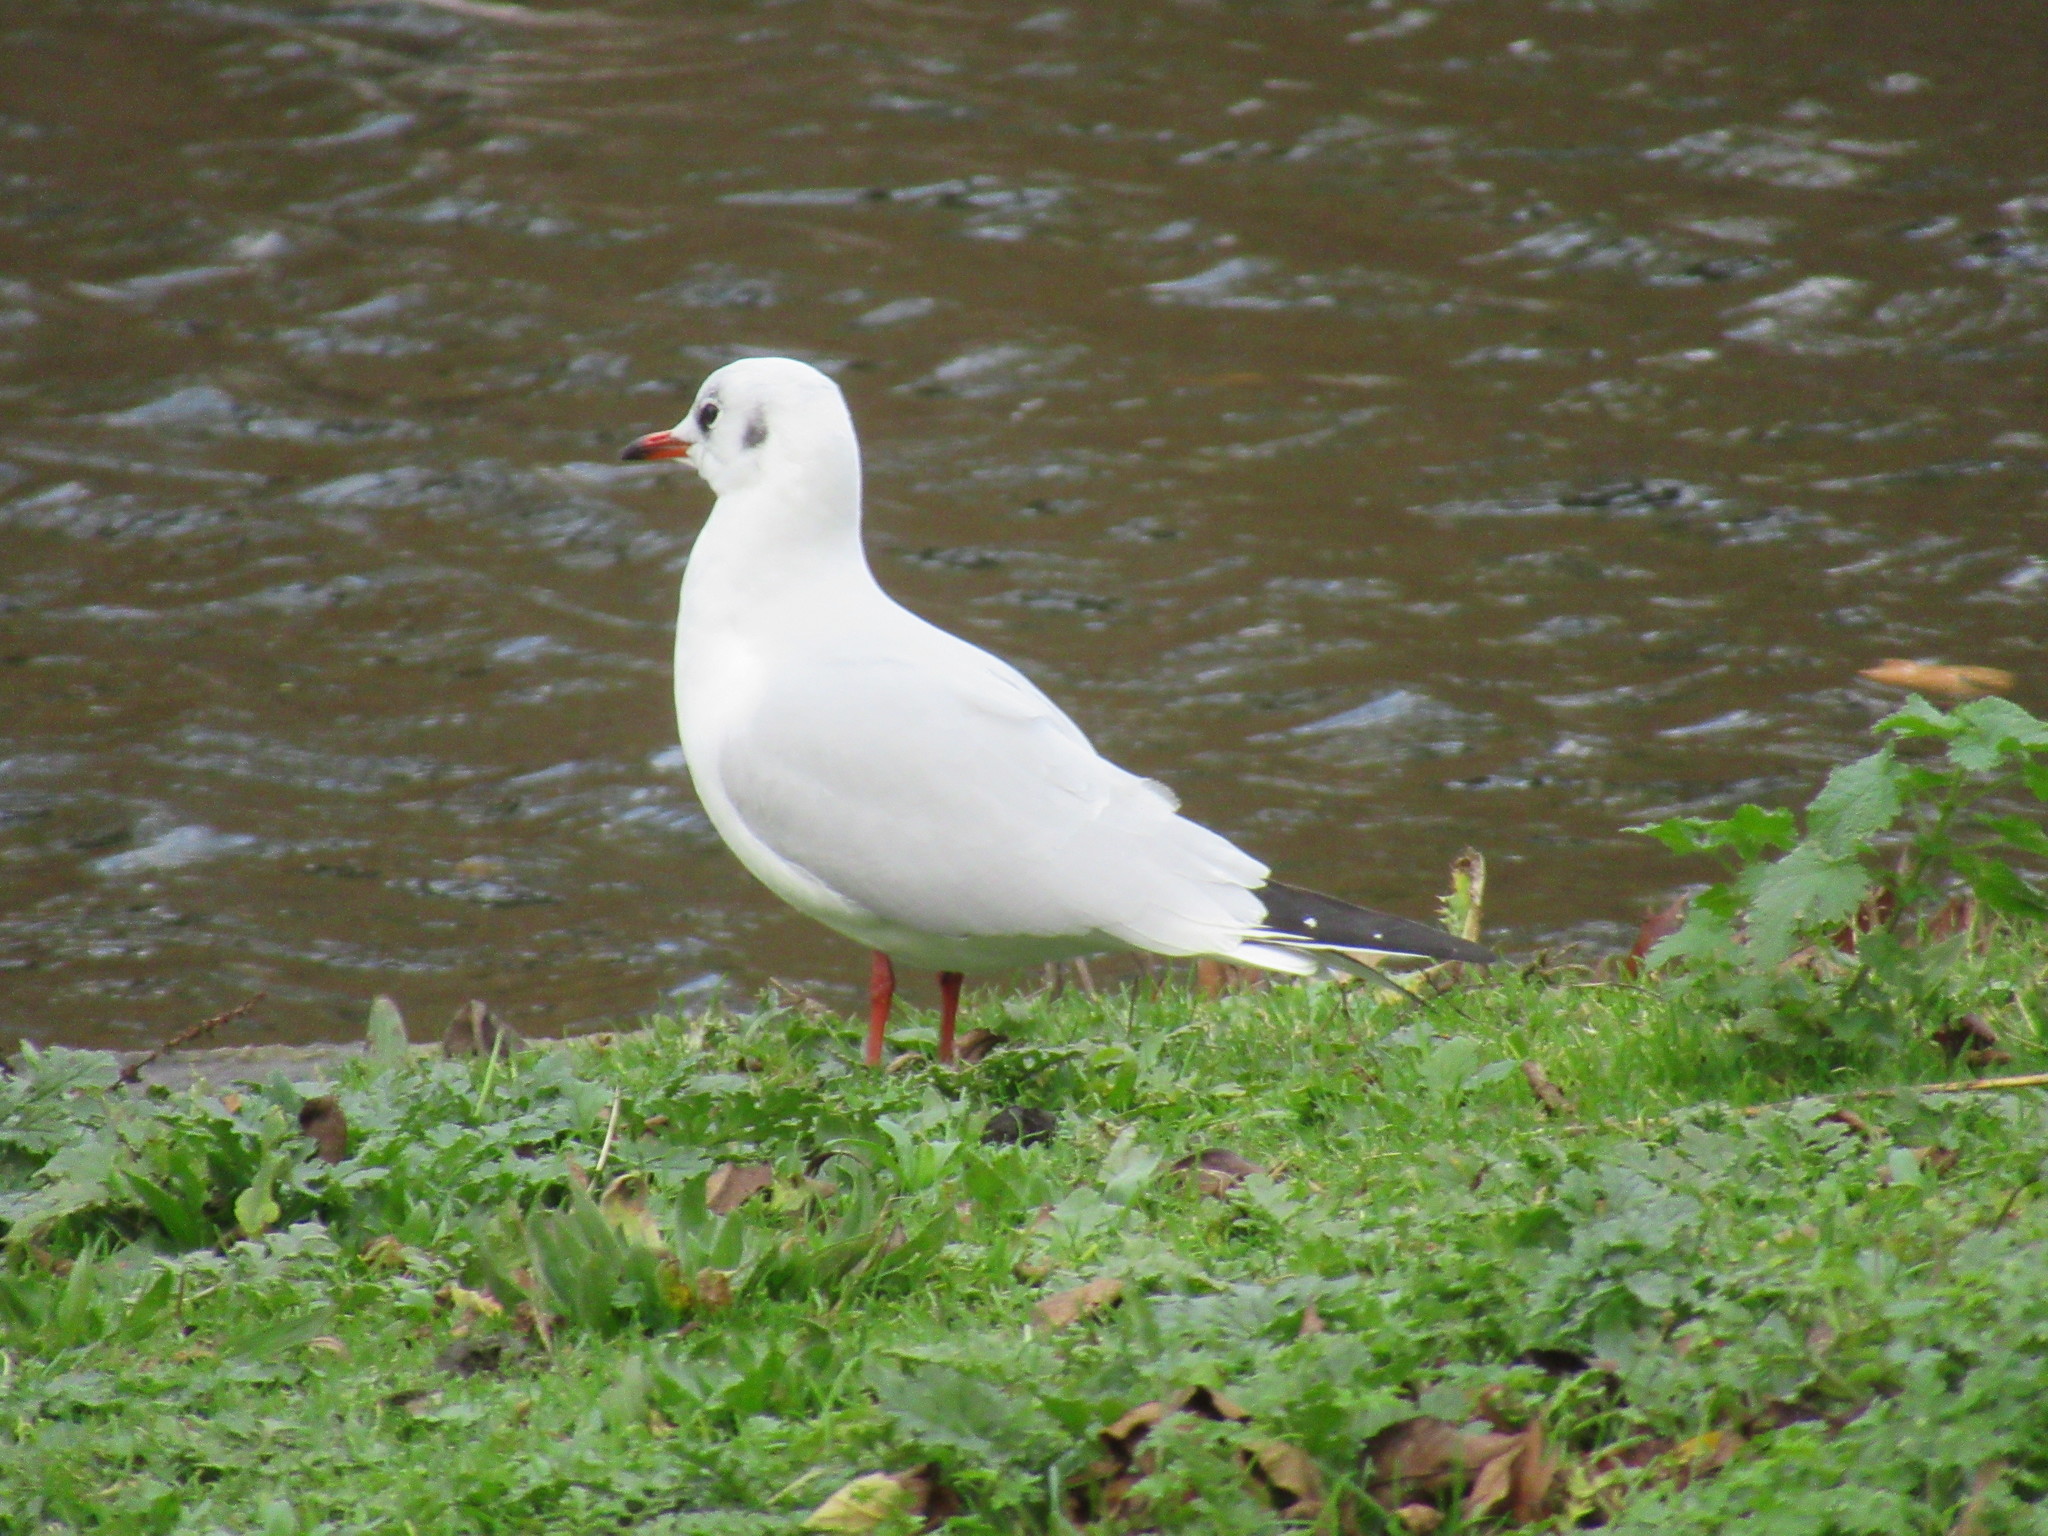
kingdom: Animalia
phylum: Chordata
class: Aves
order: Charadriiformes
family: Laridae
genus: Chroicocephalus
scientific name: Chroicocephalus ridibundus
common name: Black-headed gull
